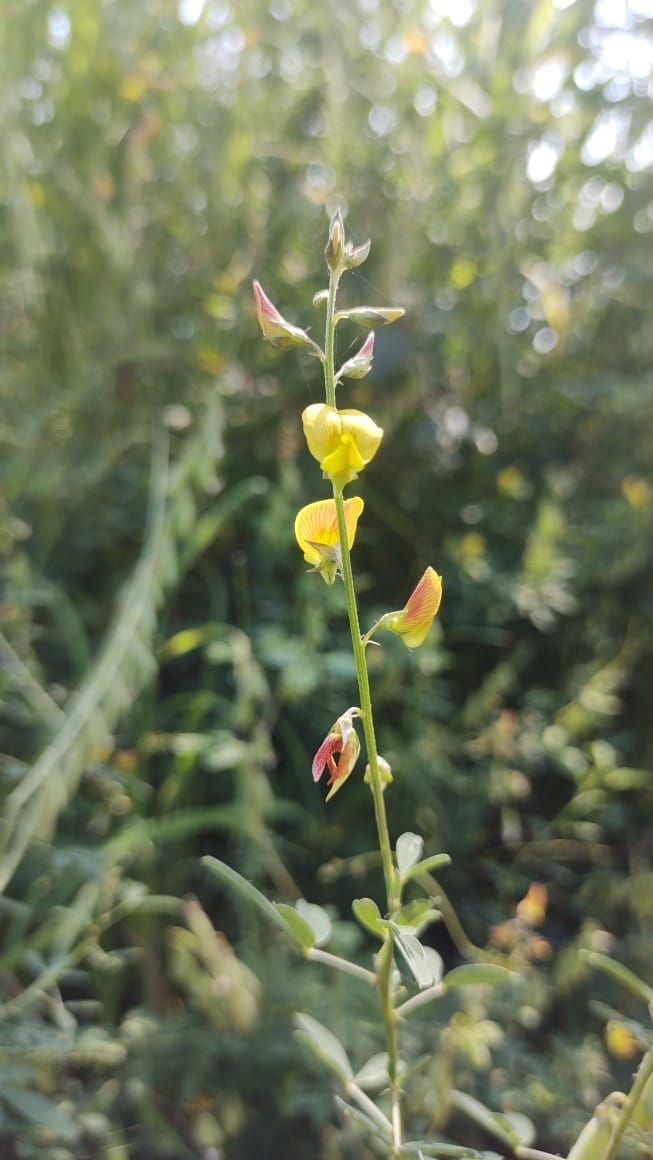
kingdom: Plantae
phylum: Tracheophyta
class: Magnoliopsida
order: Fabales
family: Fabaceae
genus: Crotalaria
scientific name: Crotalaria pumila
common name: Low rattlebox
